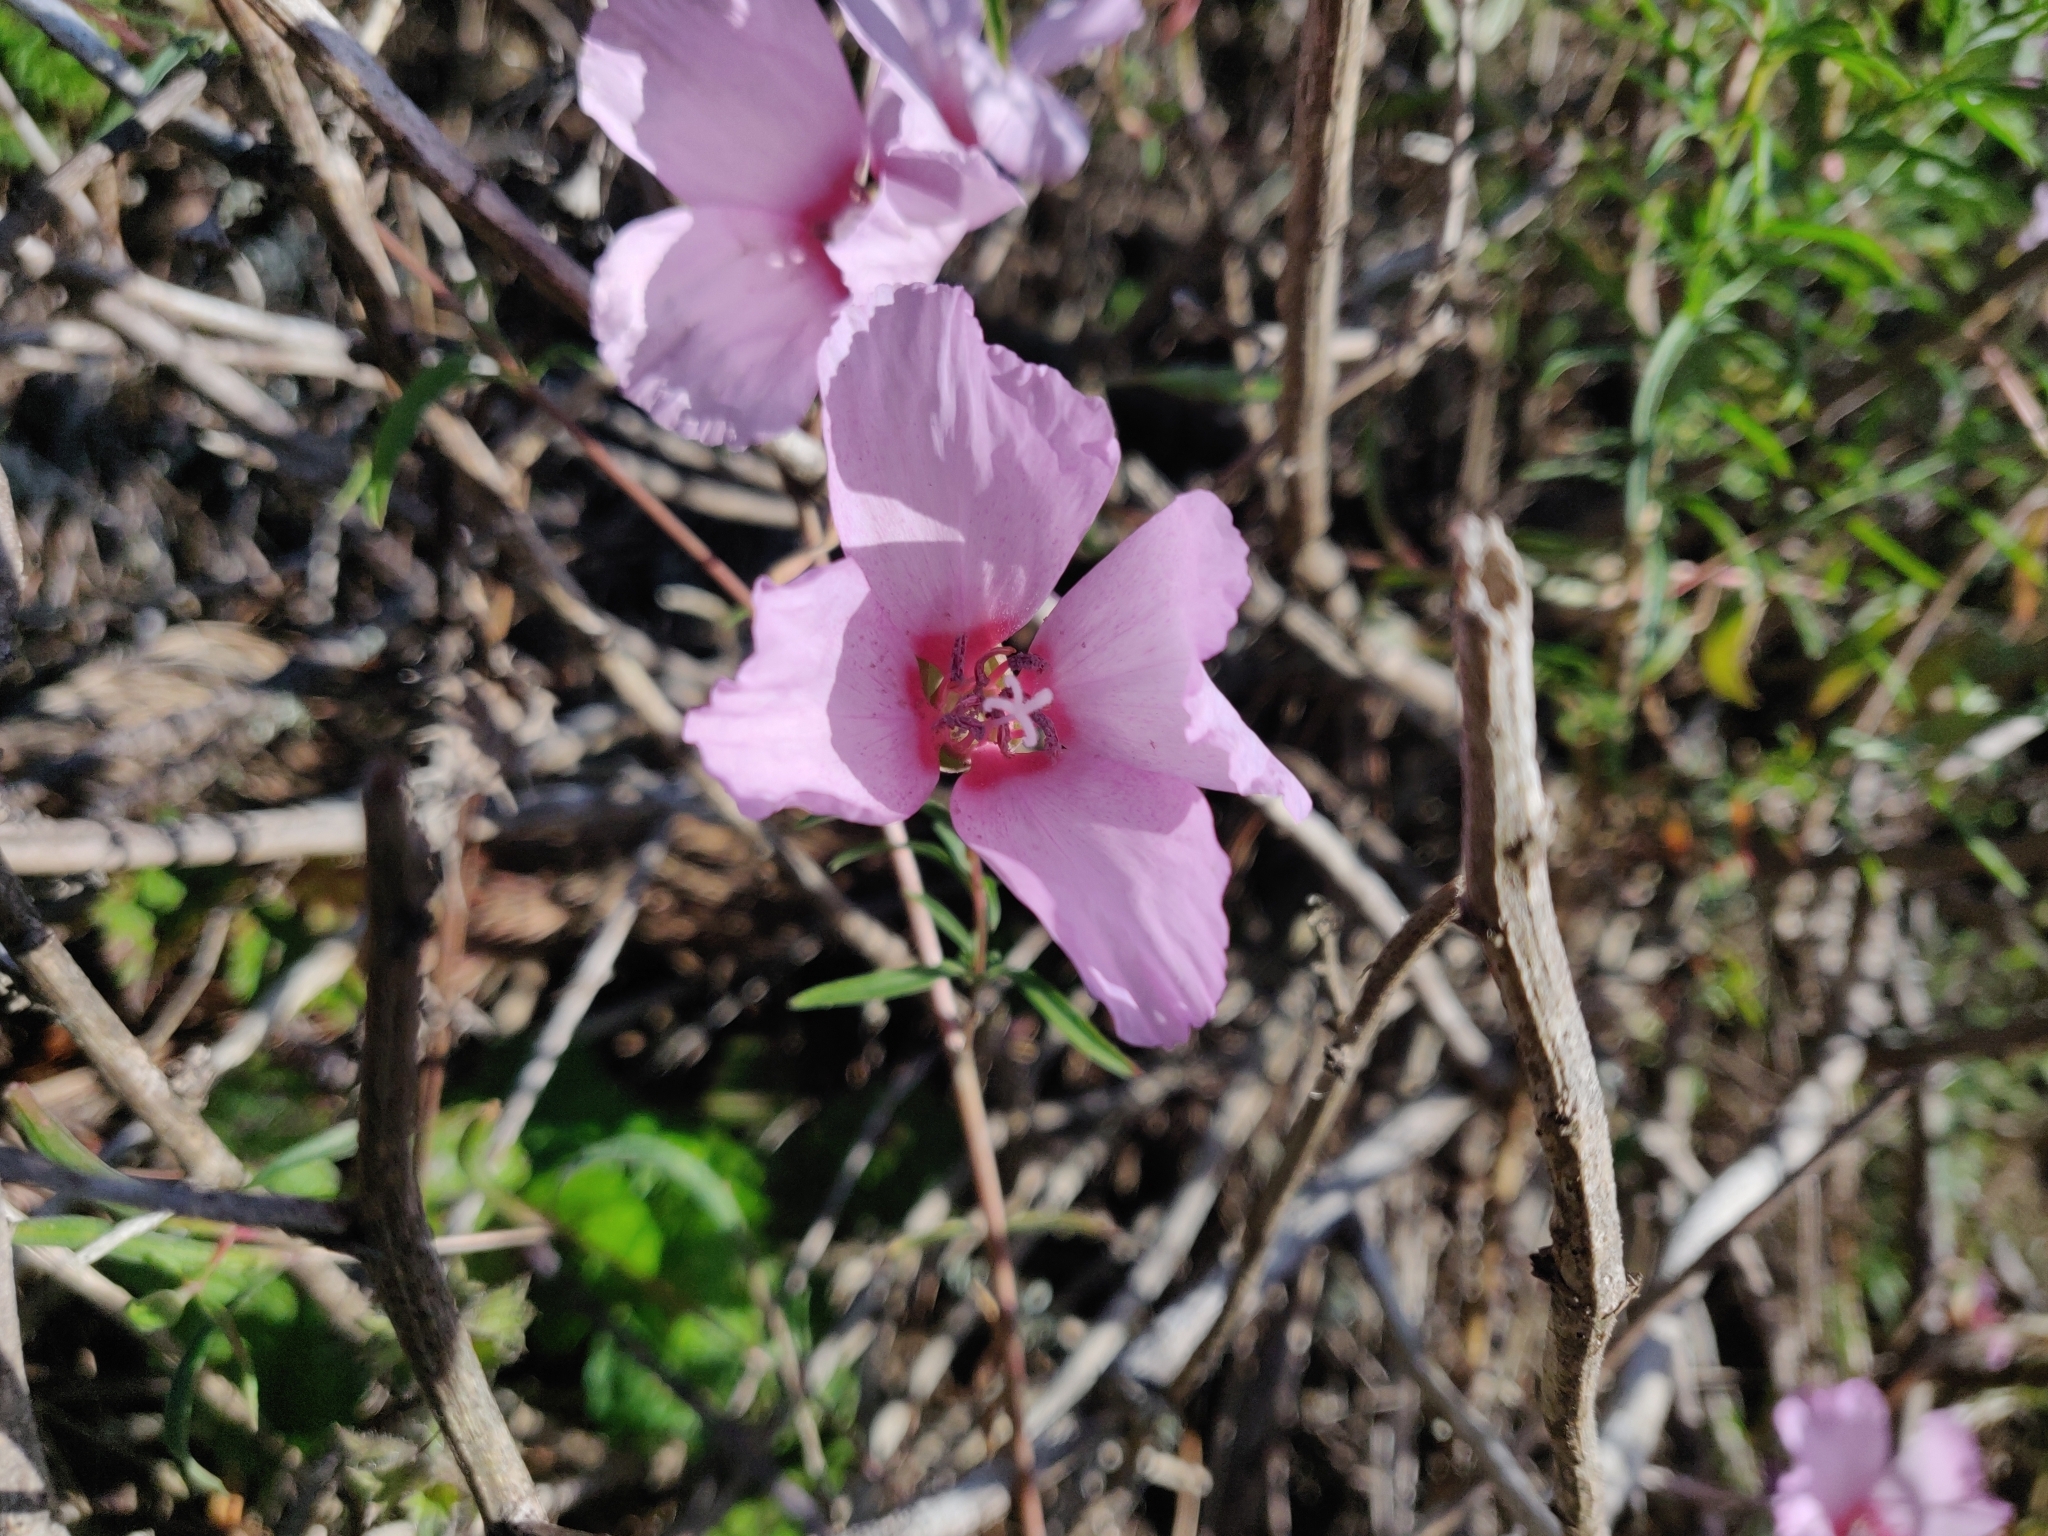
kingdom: Plantae
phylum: Tracheophyta
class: Magnoliopsida
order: Myrtales
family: Onagraceae
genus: Clarkia
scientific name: Clarkia rubicunda
